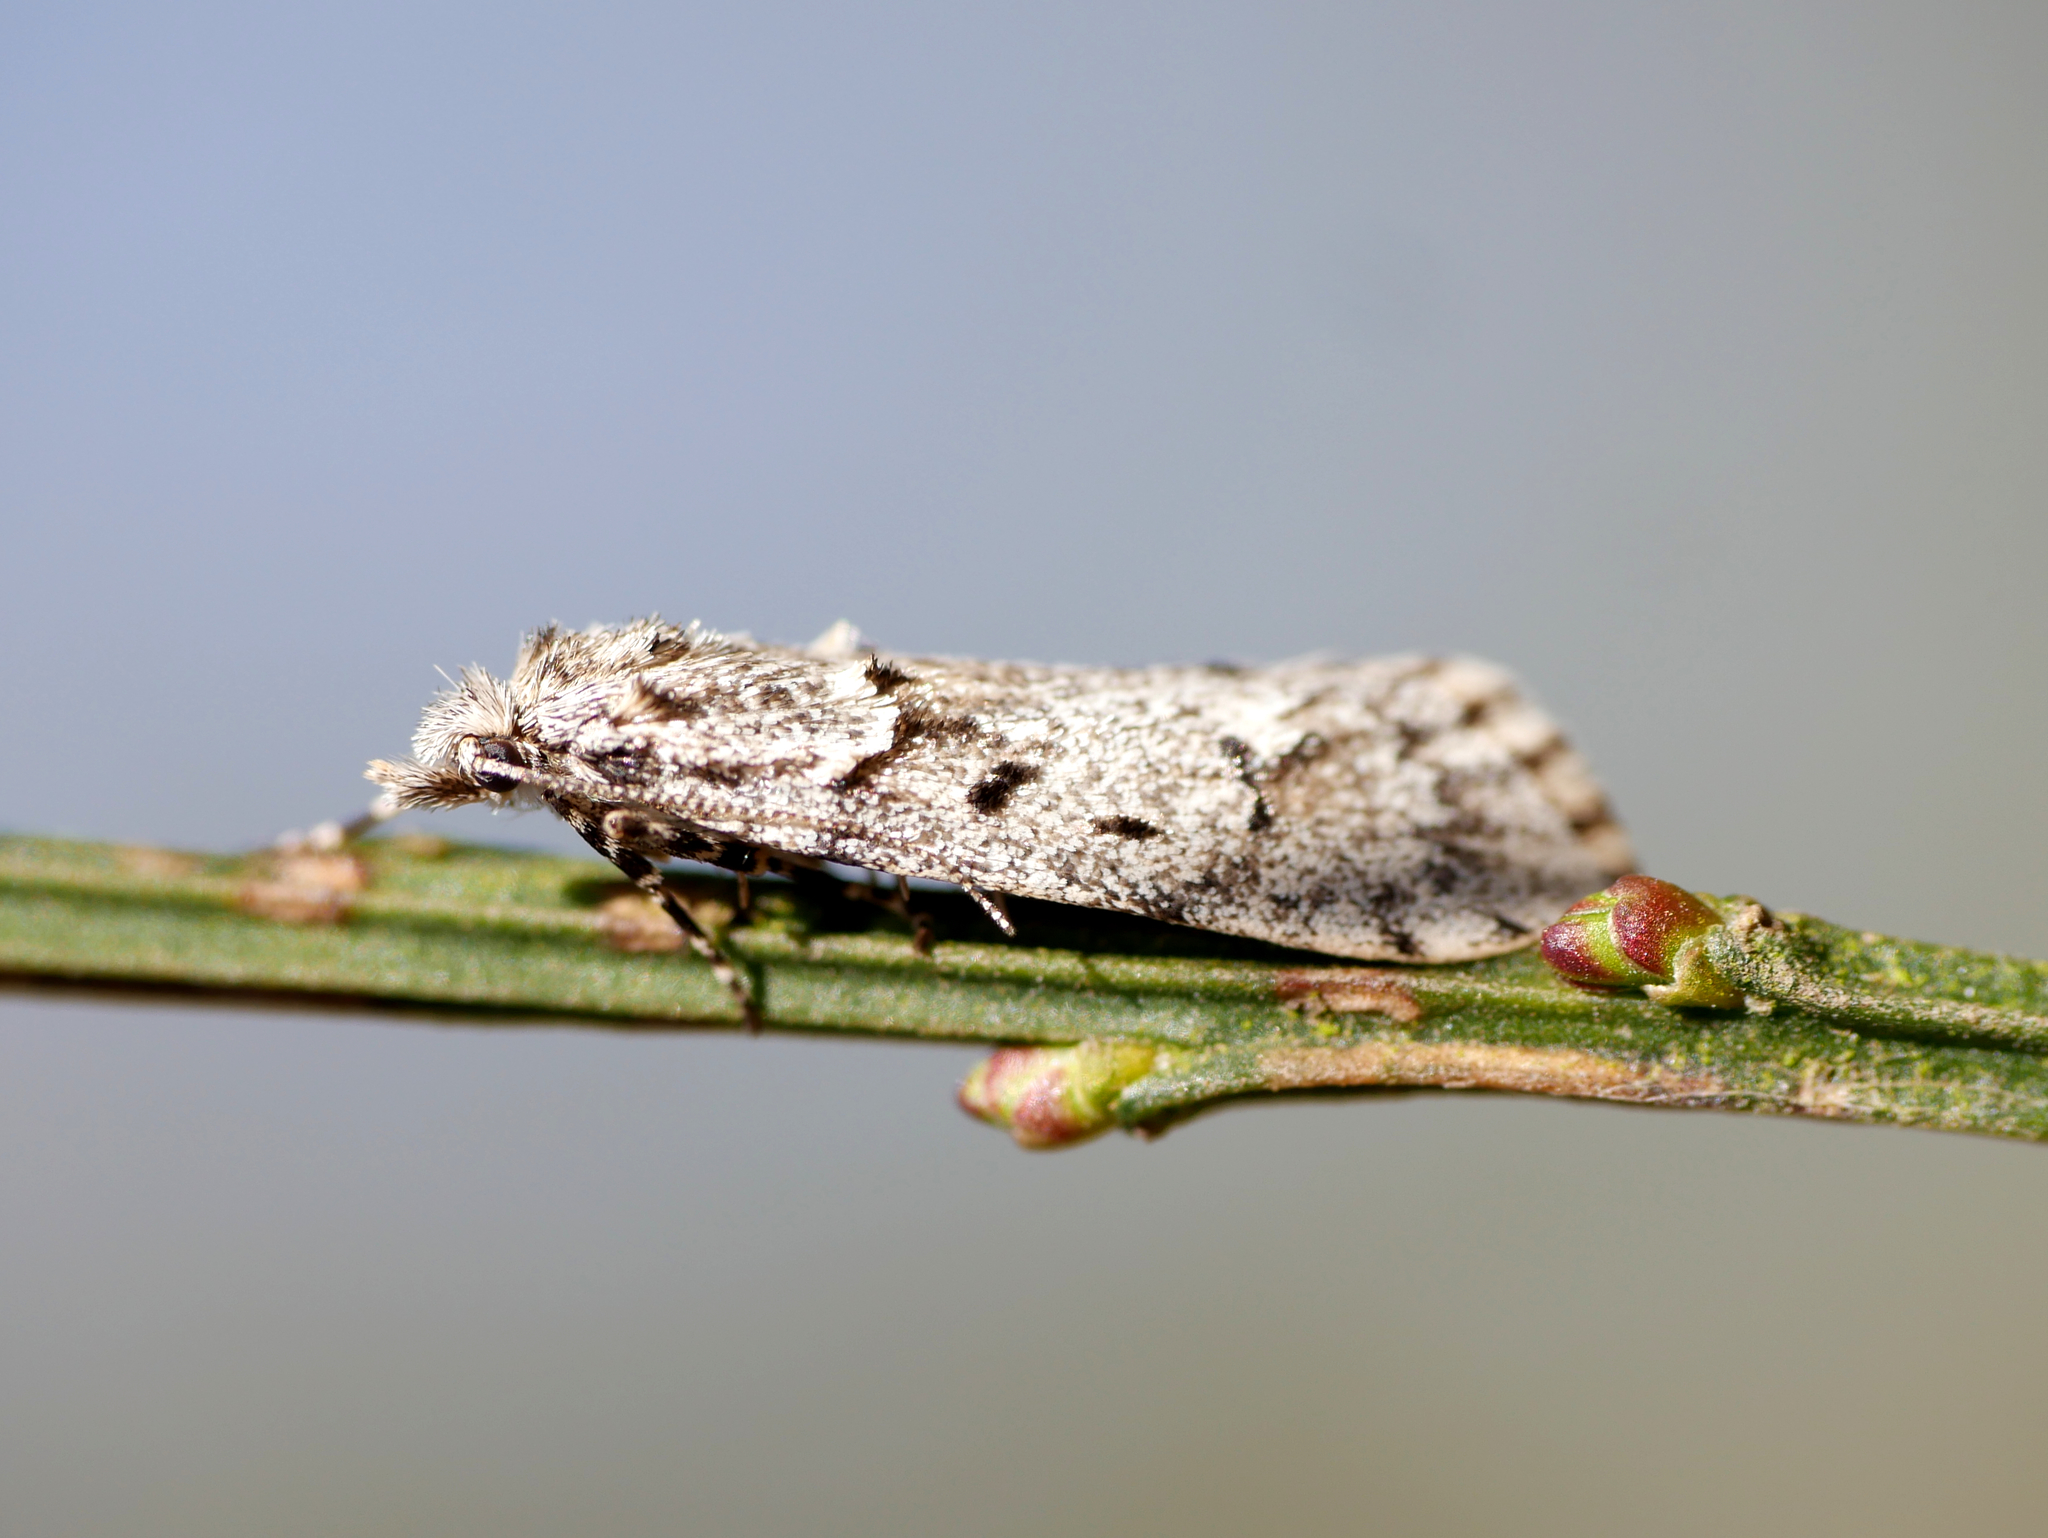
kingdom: Animalia
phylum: Arthropoda
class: Insecta
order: Lepidoptera
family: Lypusidae
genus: Diurnea
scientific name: Diurnea fagella
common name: March tubic
